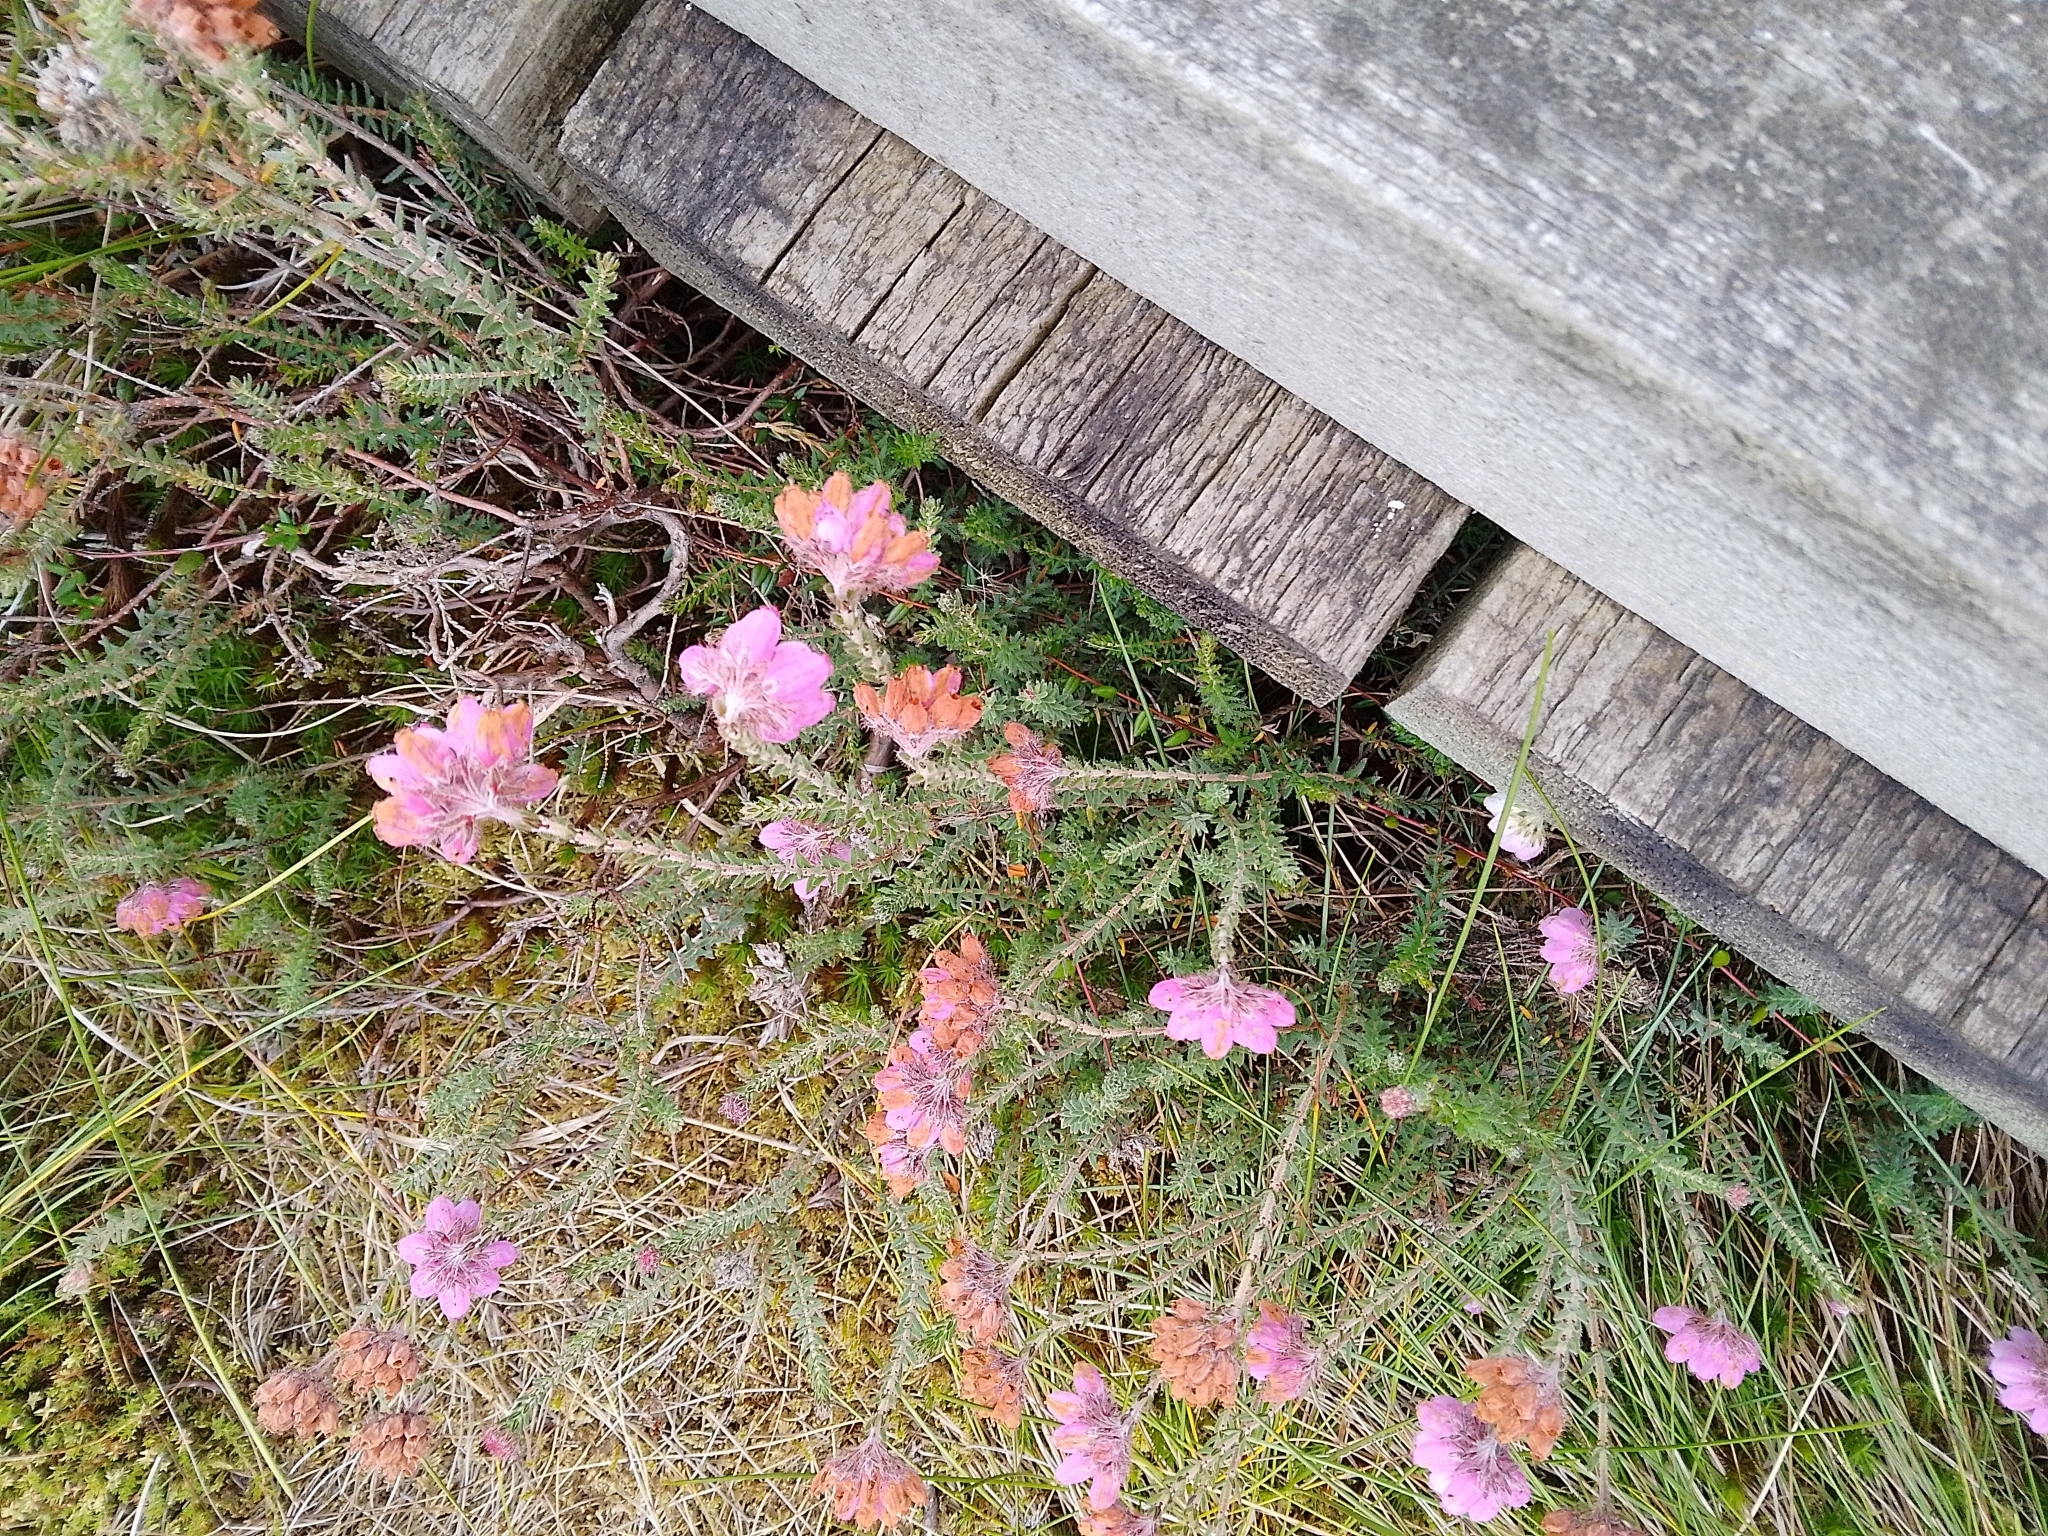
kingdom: Plantae
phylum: Tracheophyta
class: Magnoliopsida
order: Ericales
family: Ericaceae
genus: Erica
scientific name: Erica tetralix
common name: Cross-leaved heath
